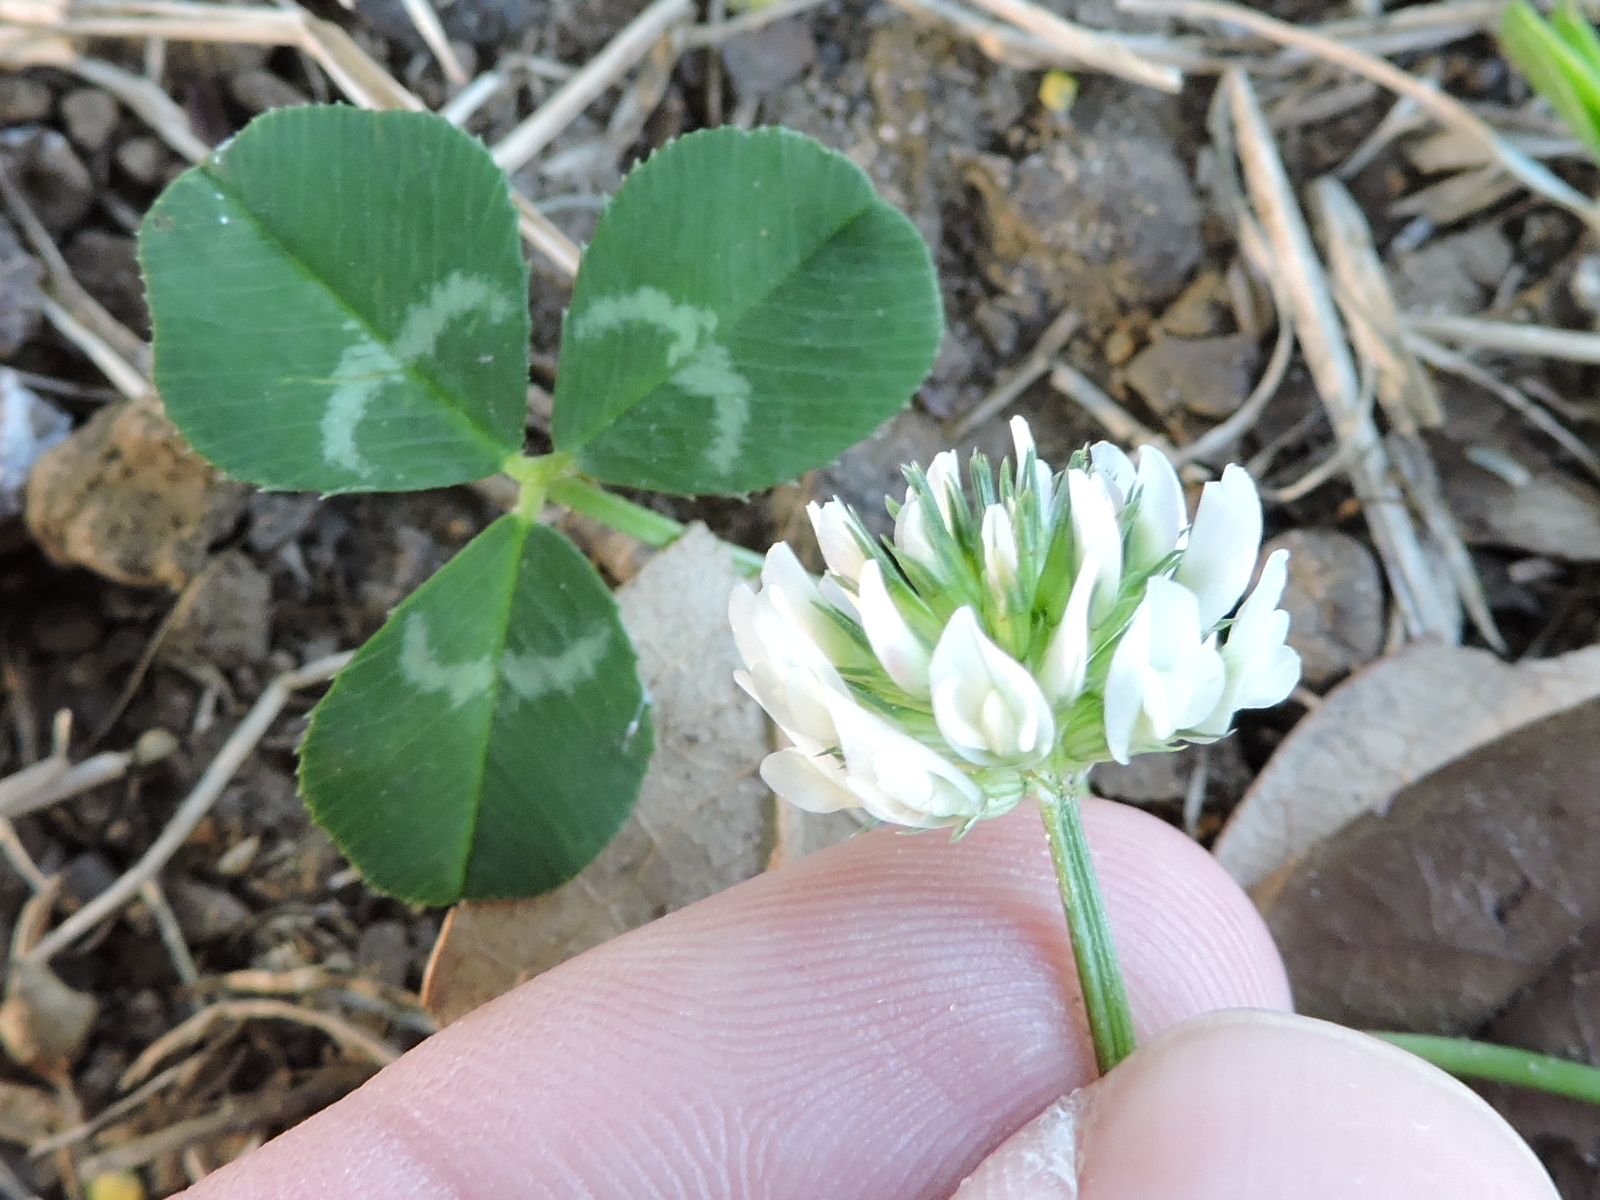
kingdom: Plantae
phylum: Tracheophyta
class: Magnoliopsida
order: Fabales
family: Fabaceae
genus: Trifolium
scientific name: Trifolium repens
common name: White clover
